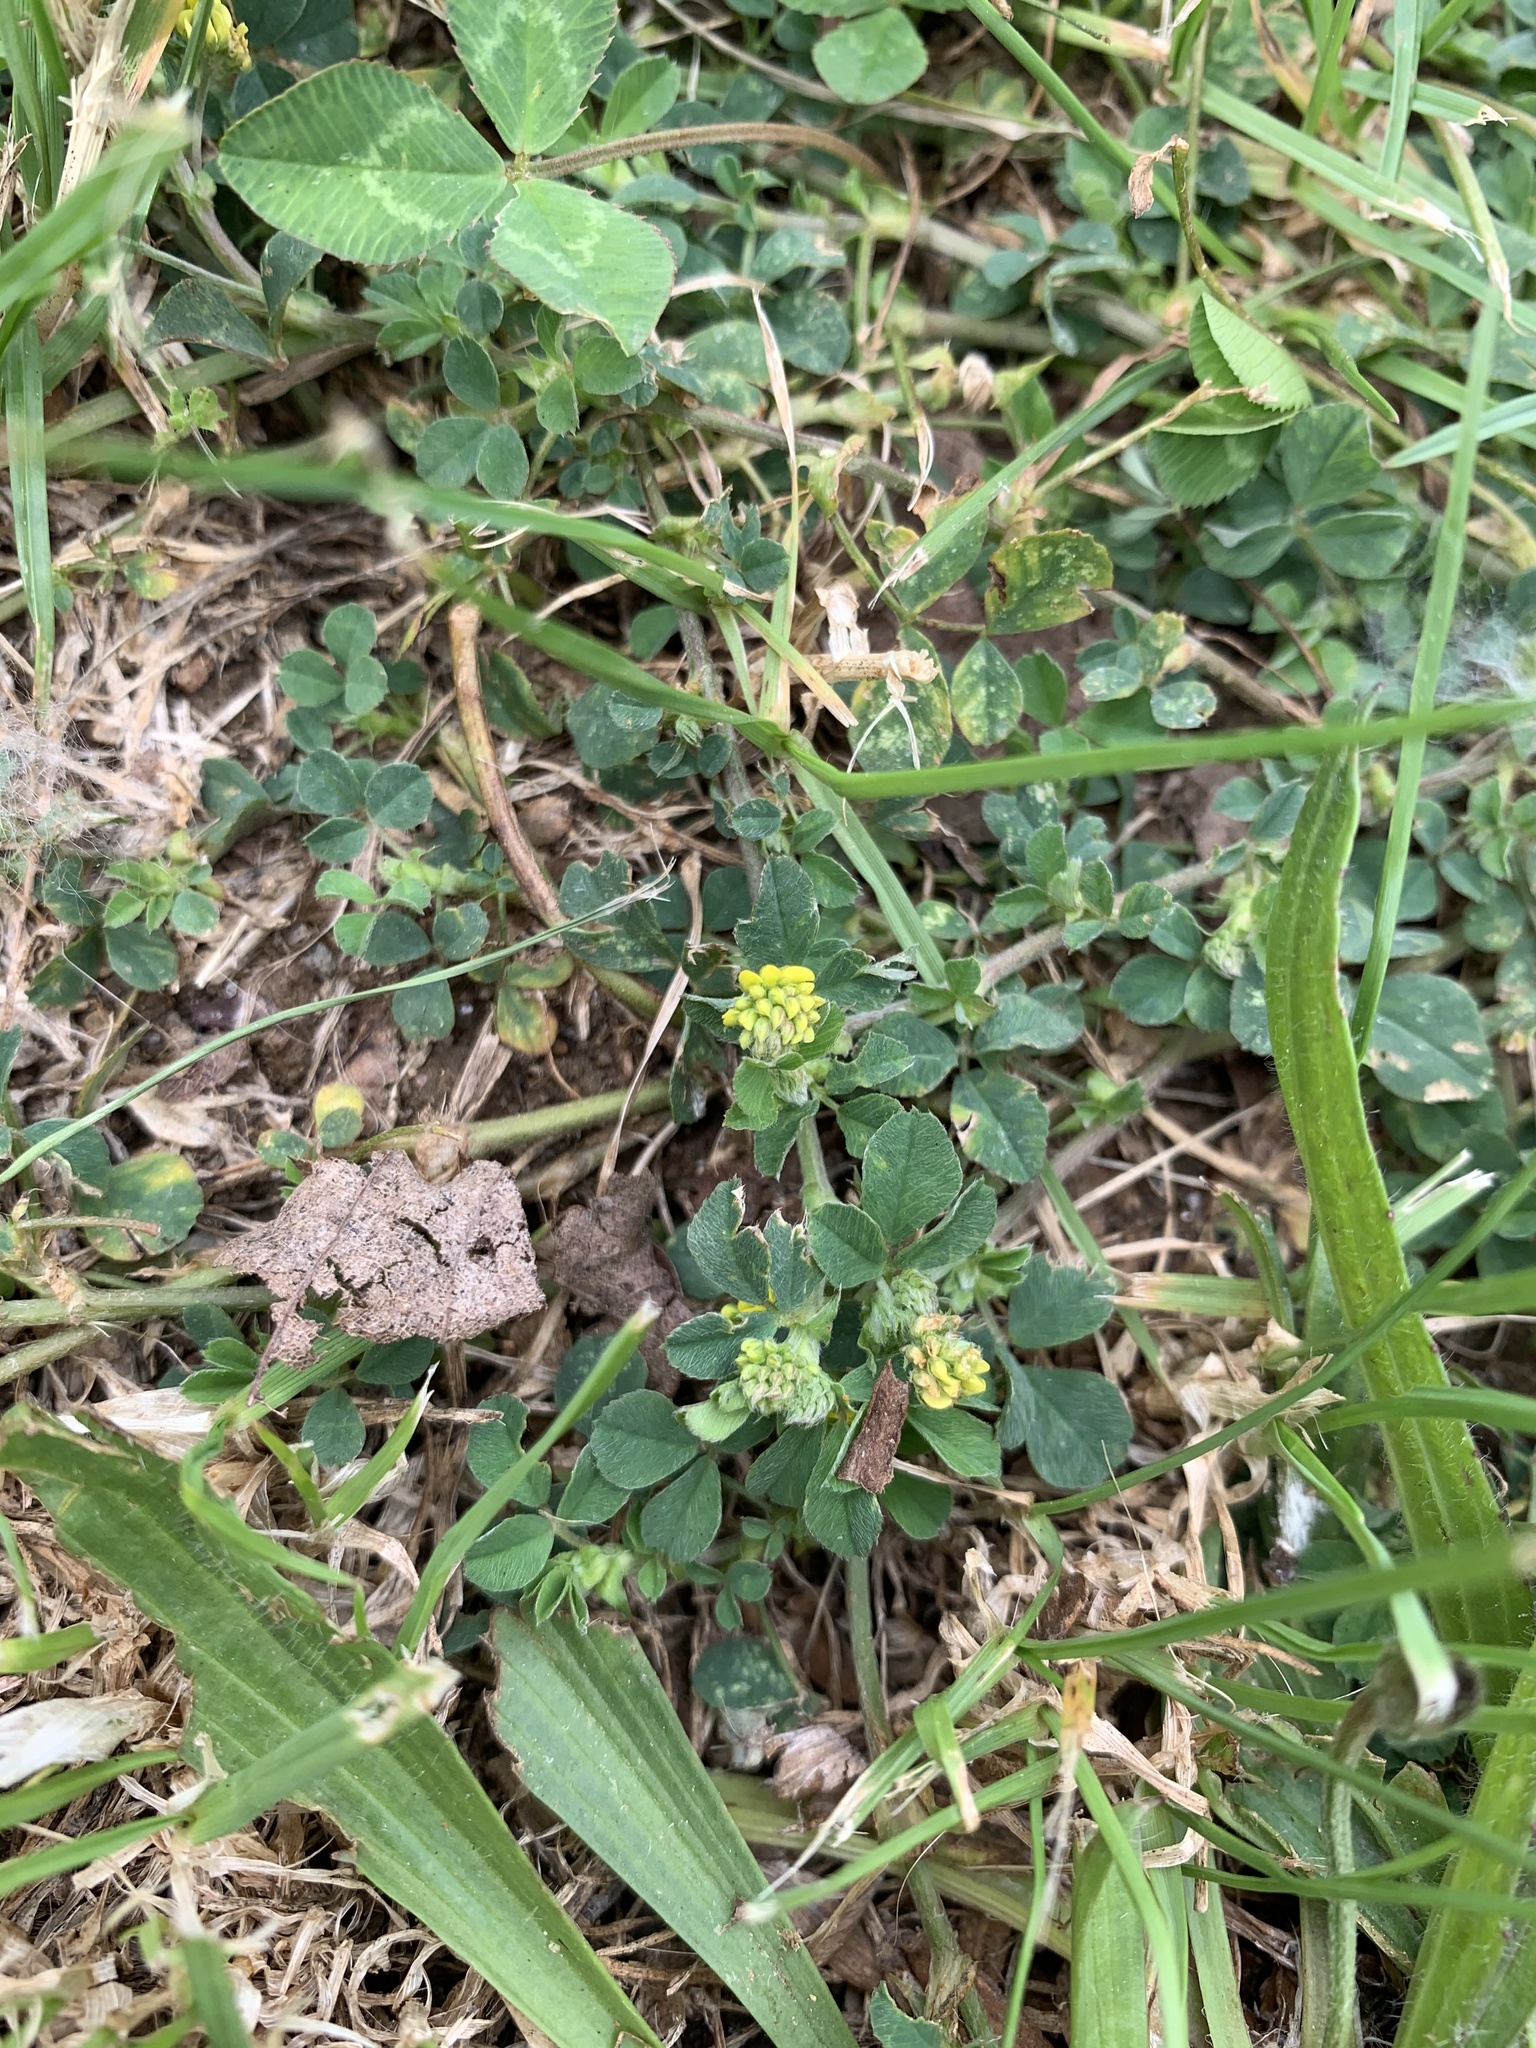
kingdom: Plantae
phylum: Tracheophyta
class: Magnoliopsida
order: Fabales
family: Fabaceae
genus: Medicago
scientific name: Medicago lupulina
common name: Black medick
